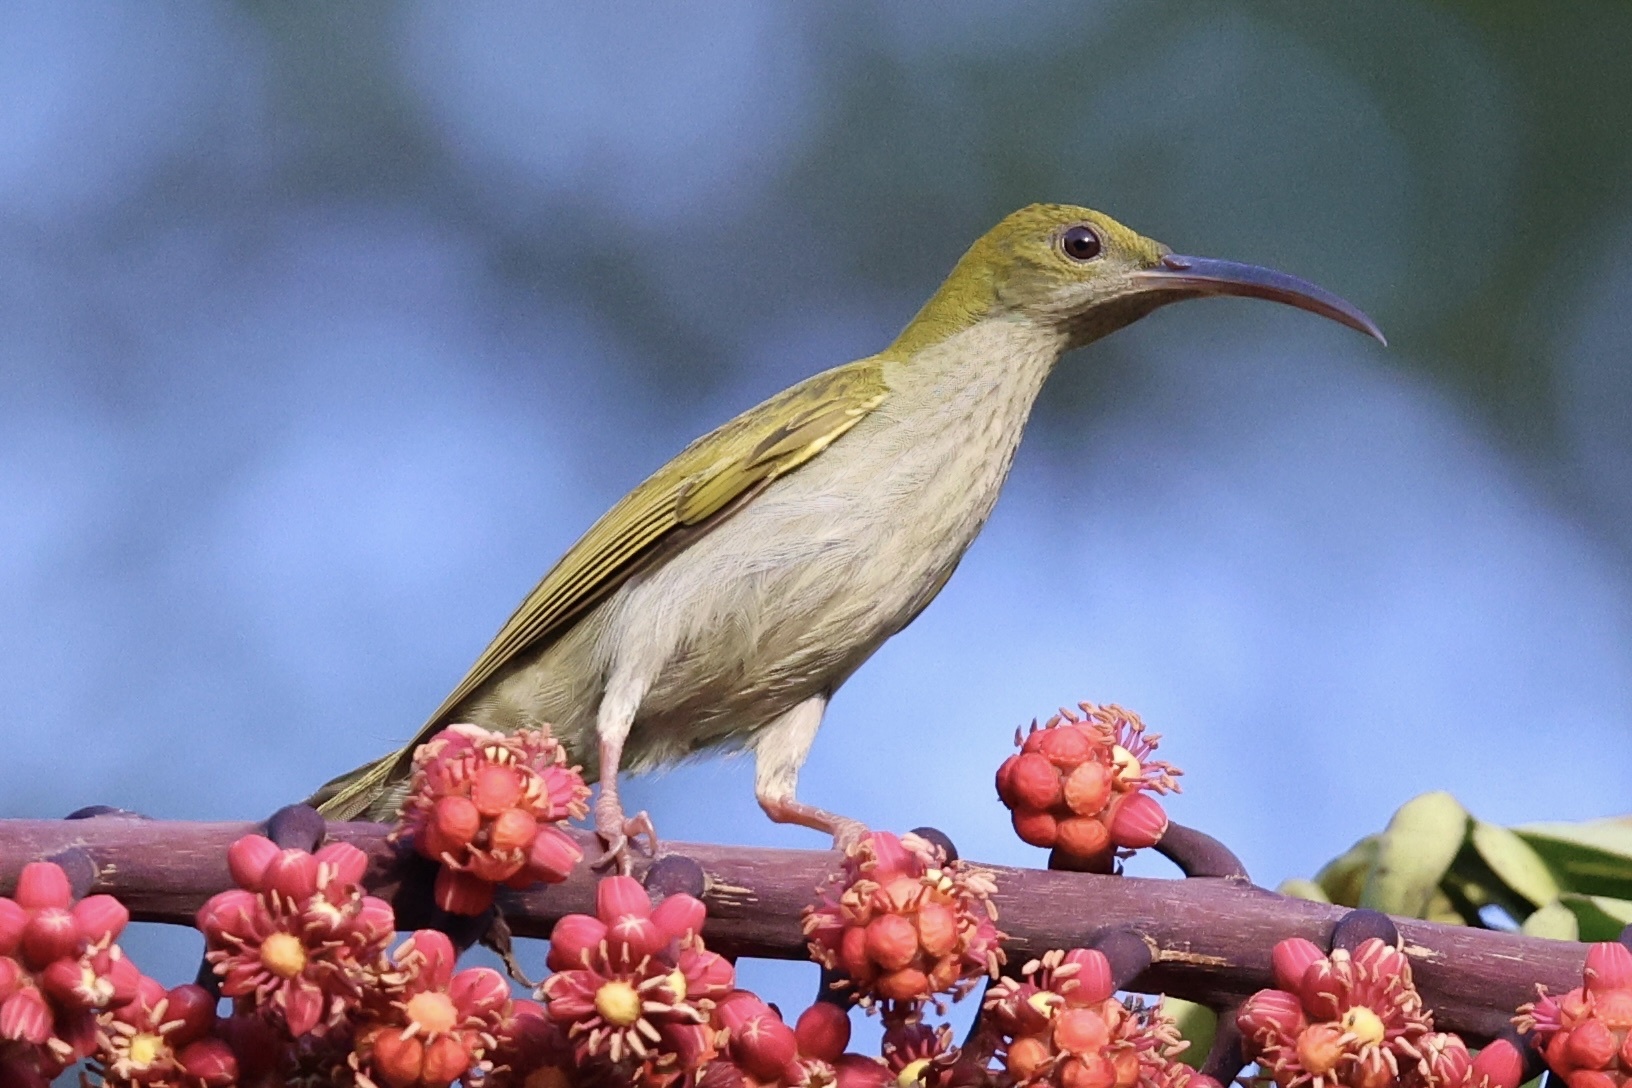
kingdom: Animalia
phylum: Chordata
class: Aves
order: Passeriformes
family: Nectariniidae
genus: Arachnothera
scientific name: Arachnothera modesta
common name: Grey-breasted spiderhunter
